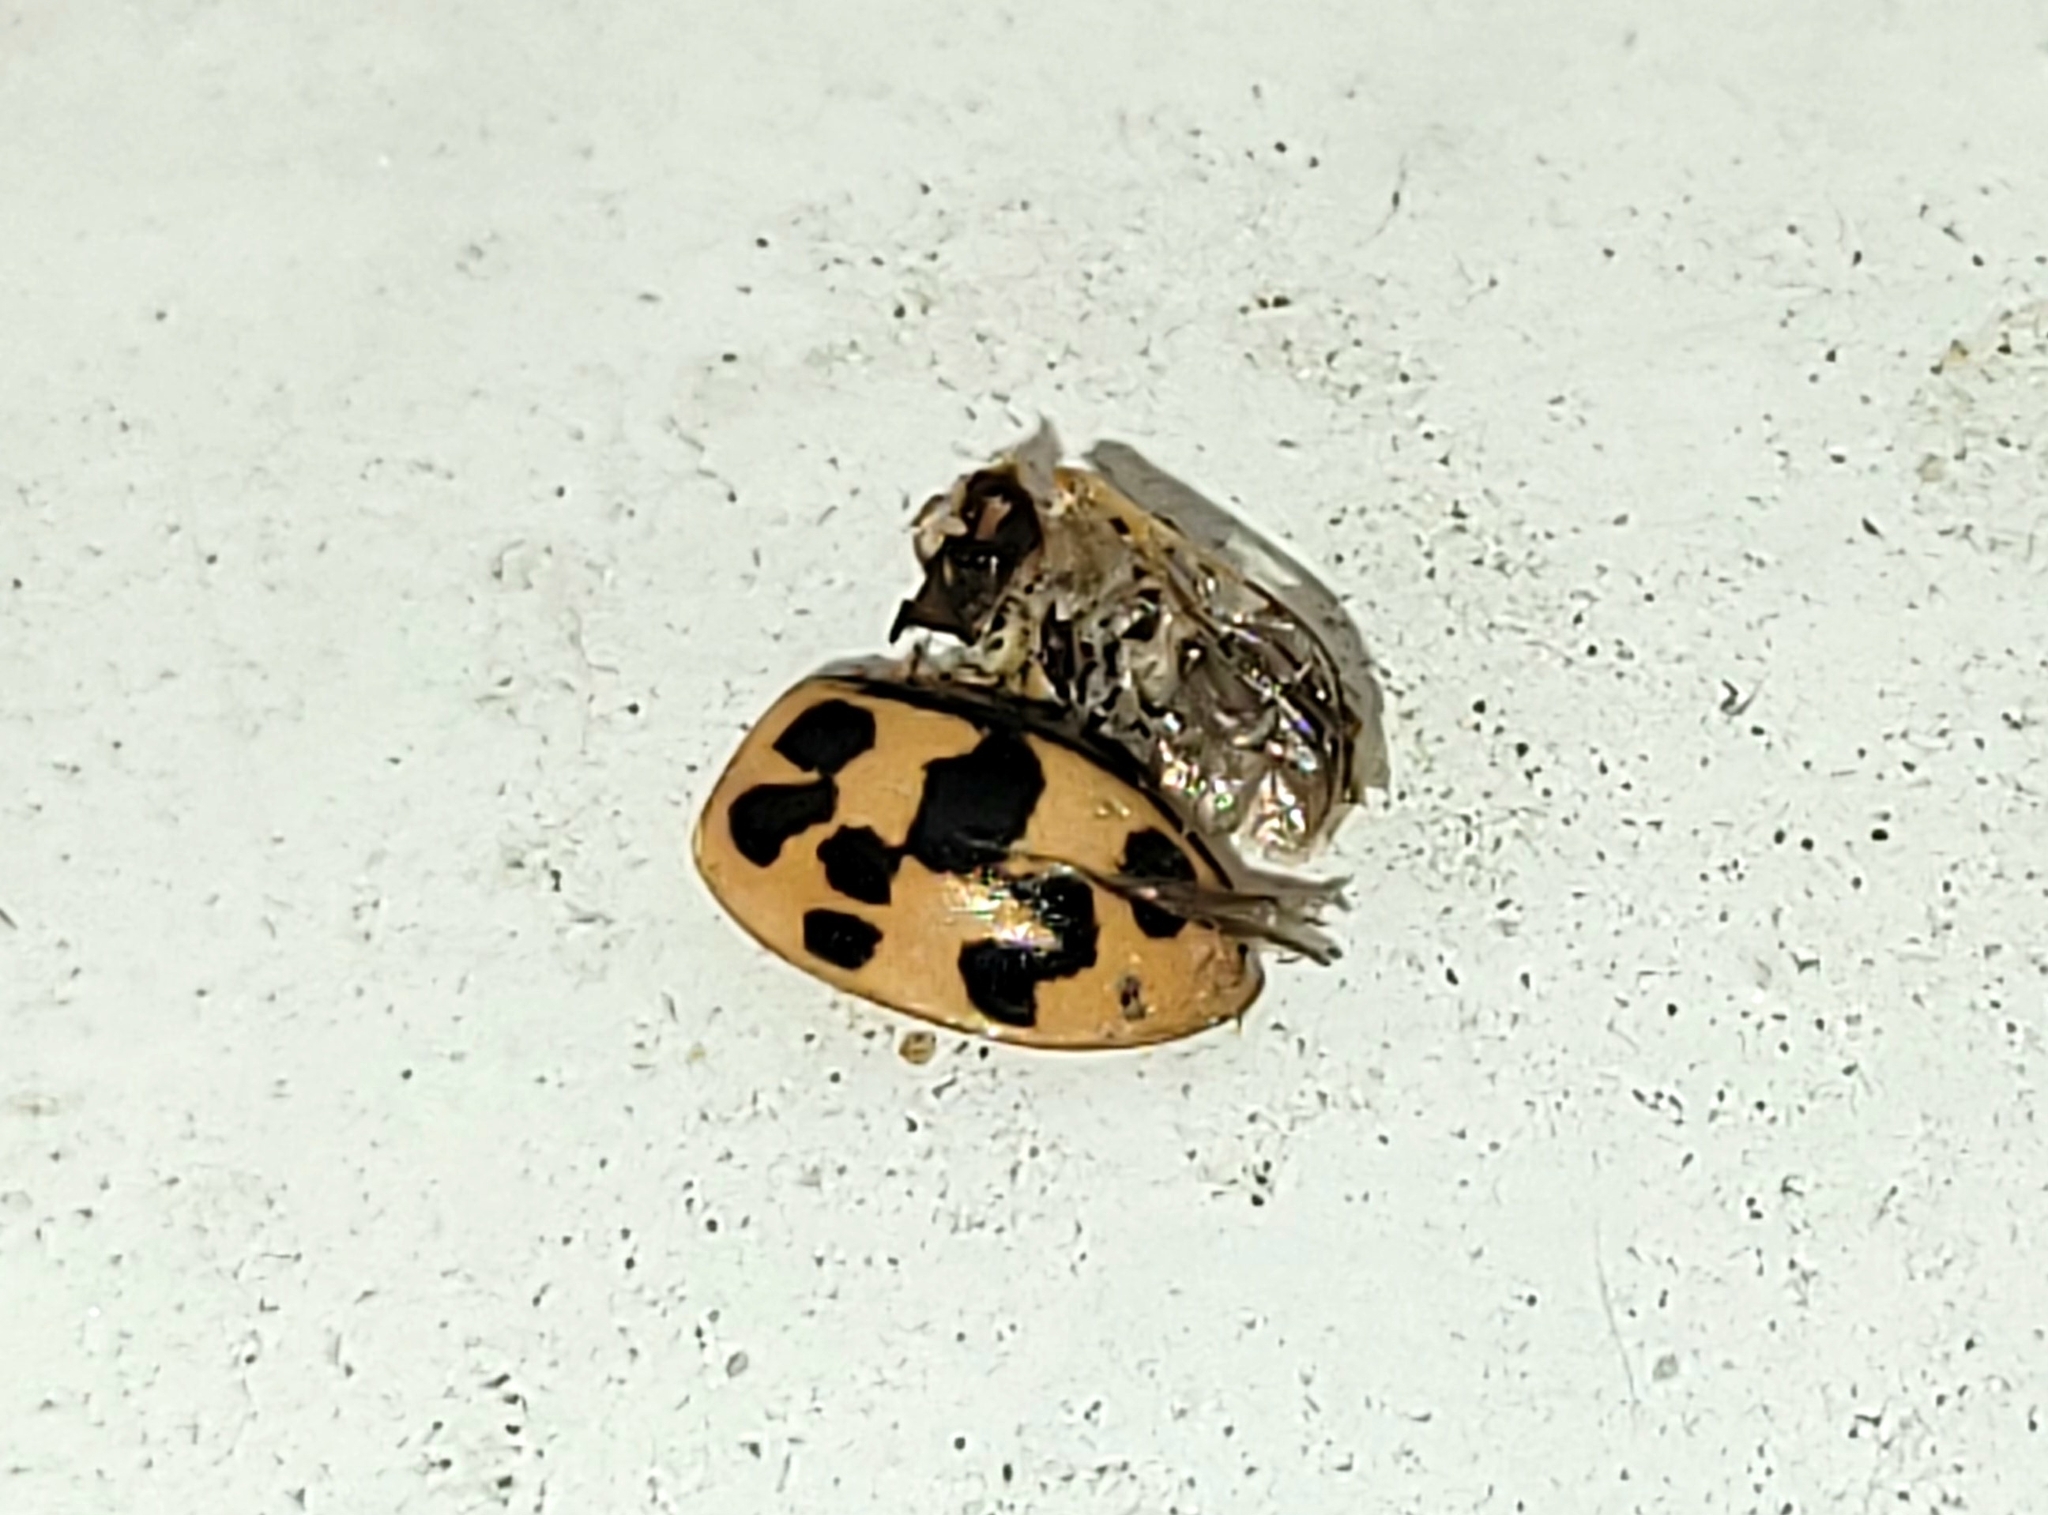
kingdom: Animalia
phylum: Arthropoda
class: Insecta
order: Coleoptera
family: Coccinellidae
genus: Oenopia
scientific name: Oenopia conglobata
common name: Ladybird beetle
